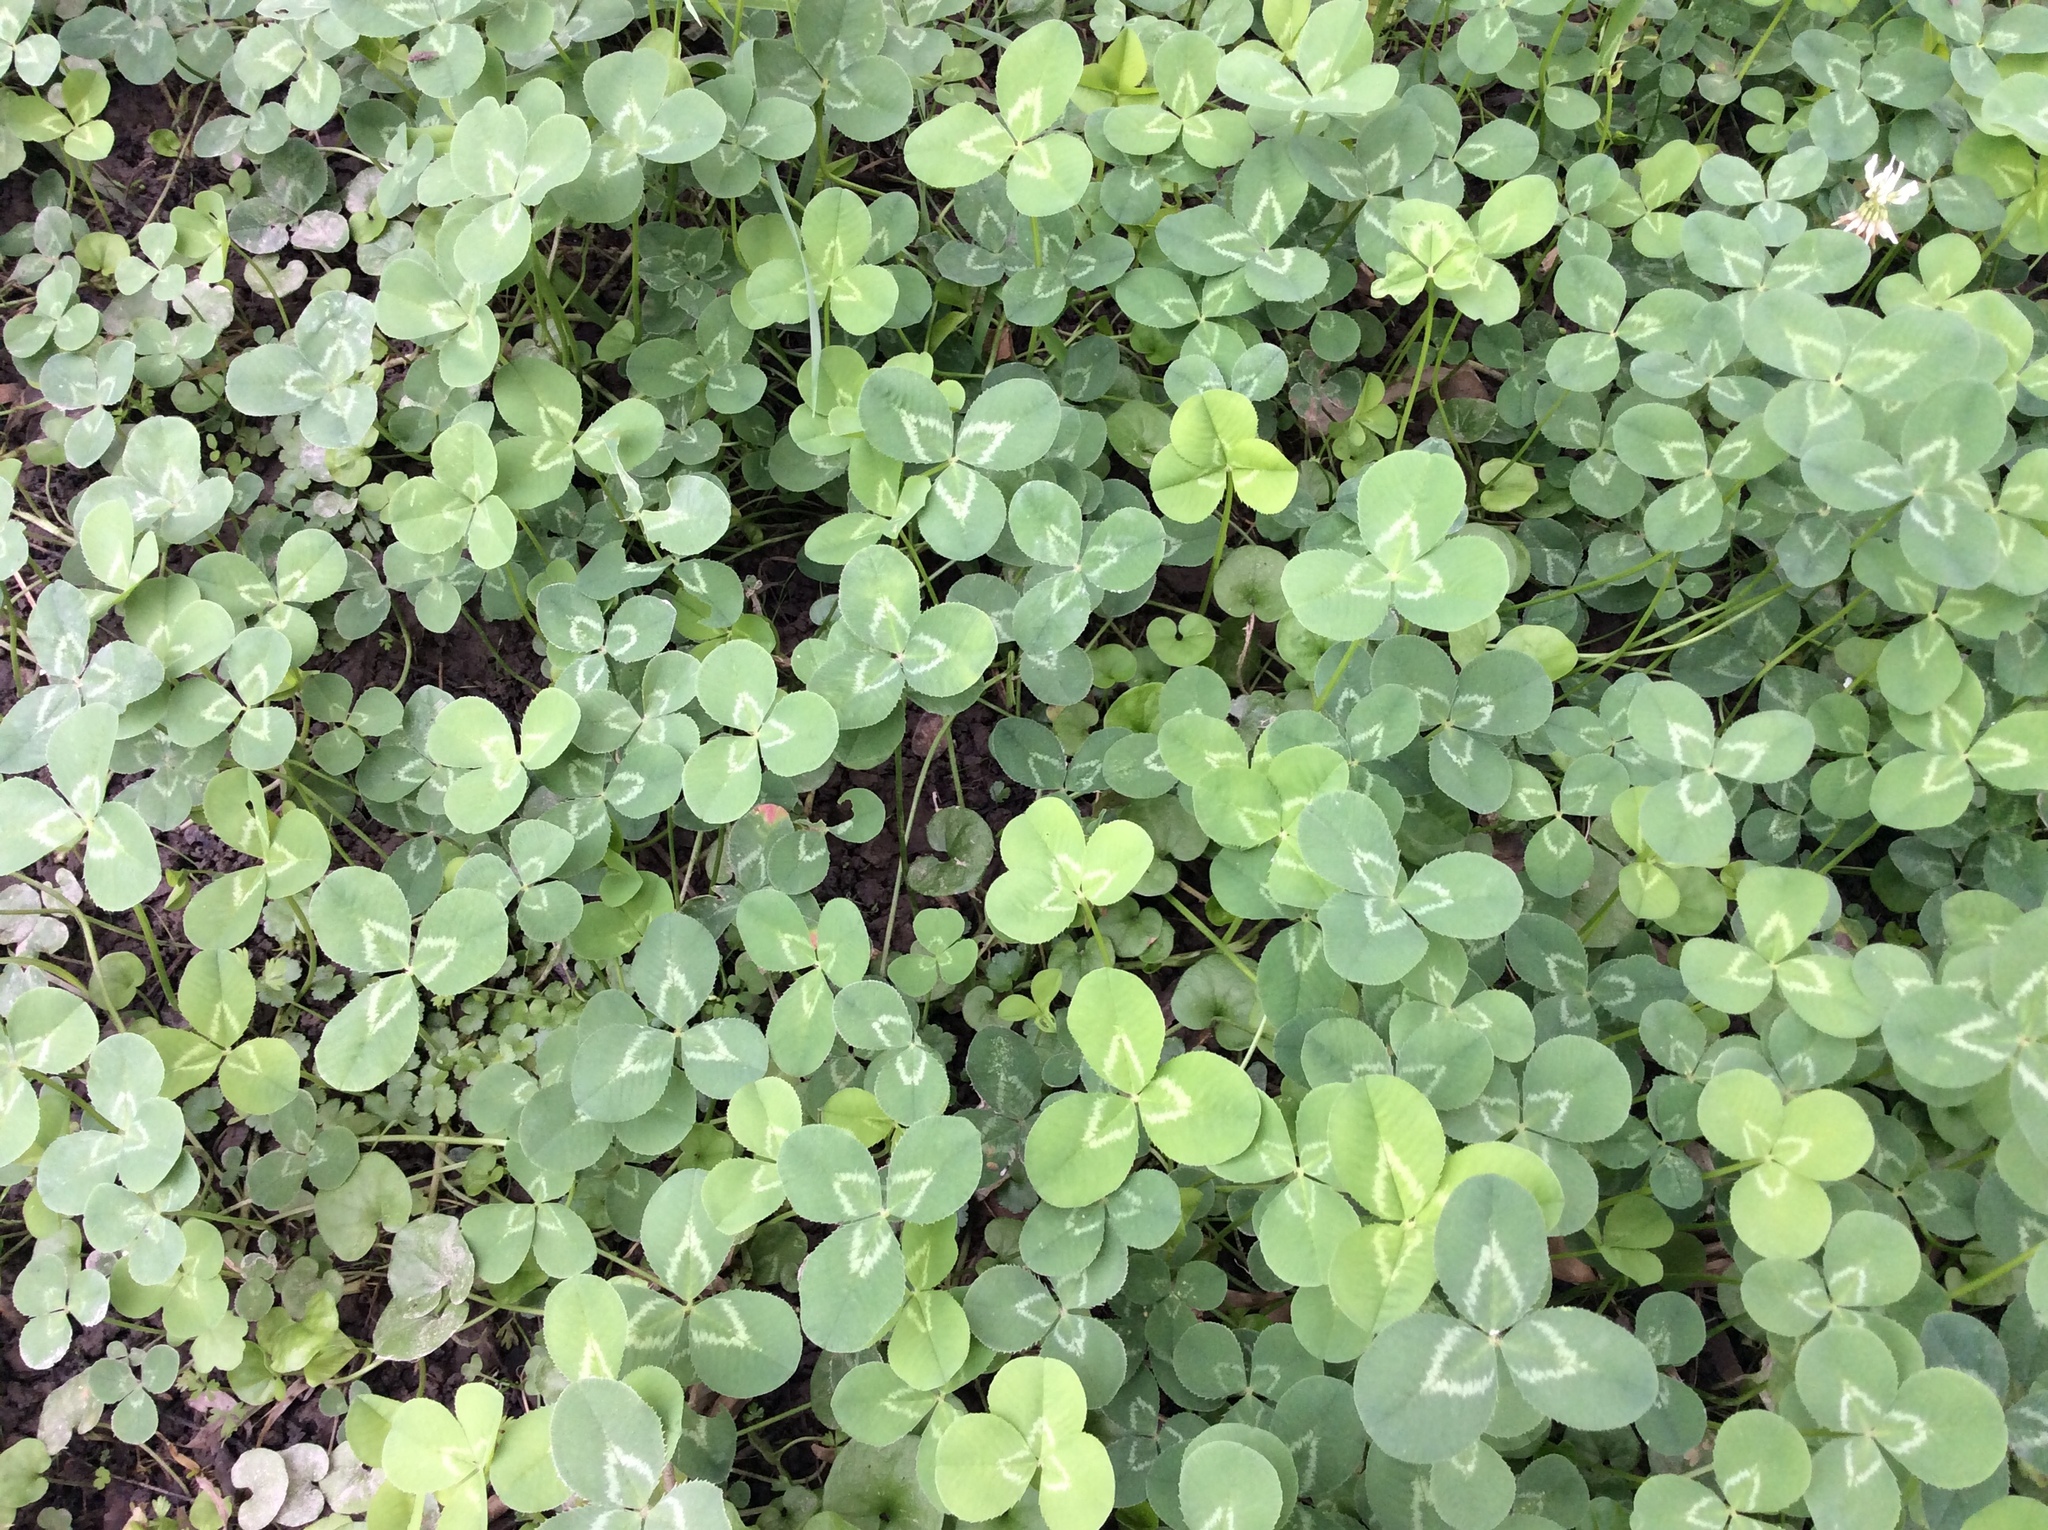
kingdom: Plantae
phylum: Tracheophyta
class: Magnoliopsida
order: Fabales
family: Fabaceae
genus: Trifolium
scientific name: Trifolium repens
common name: White clover
